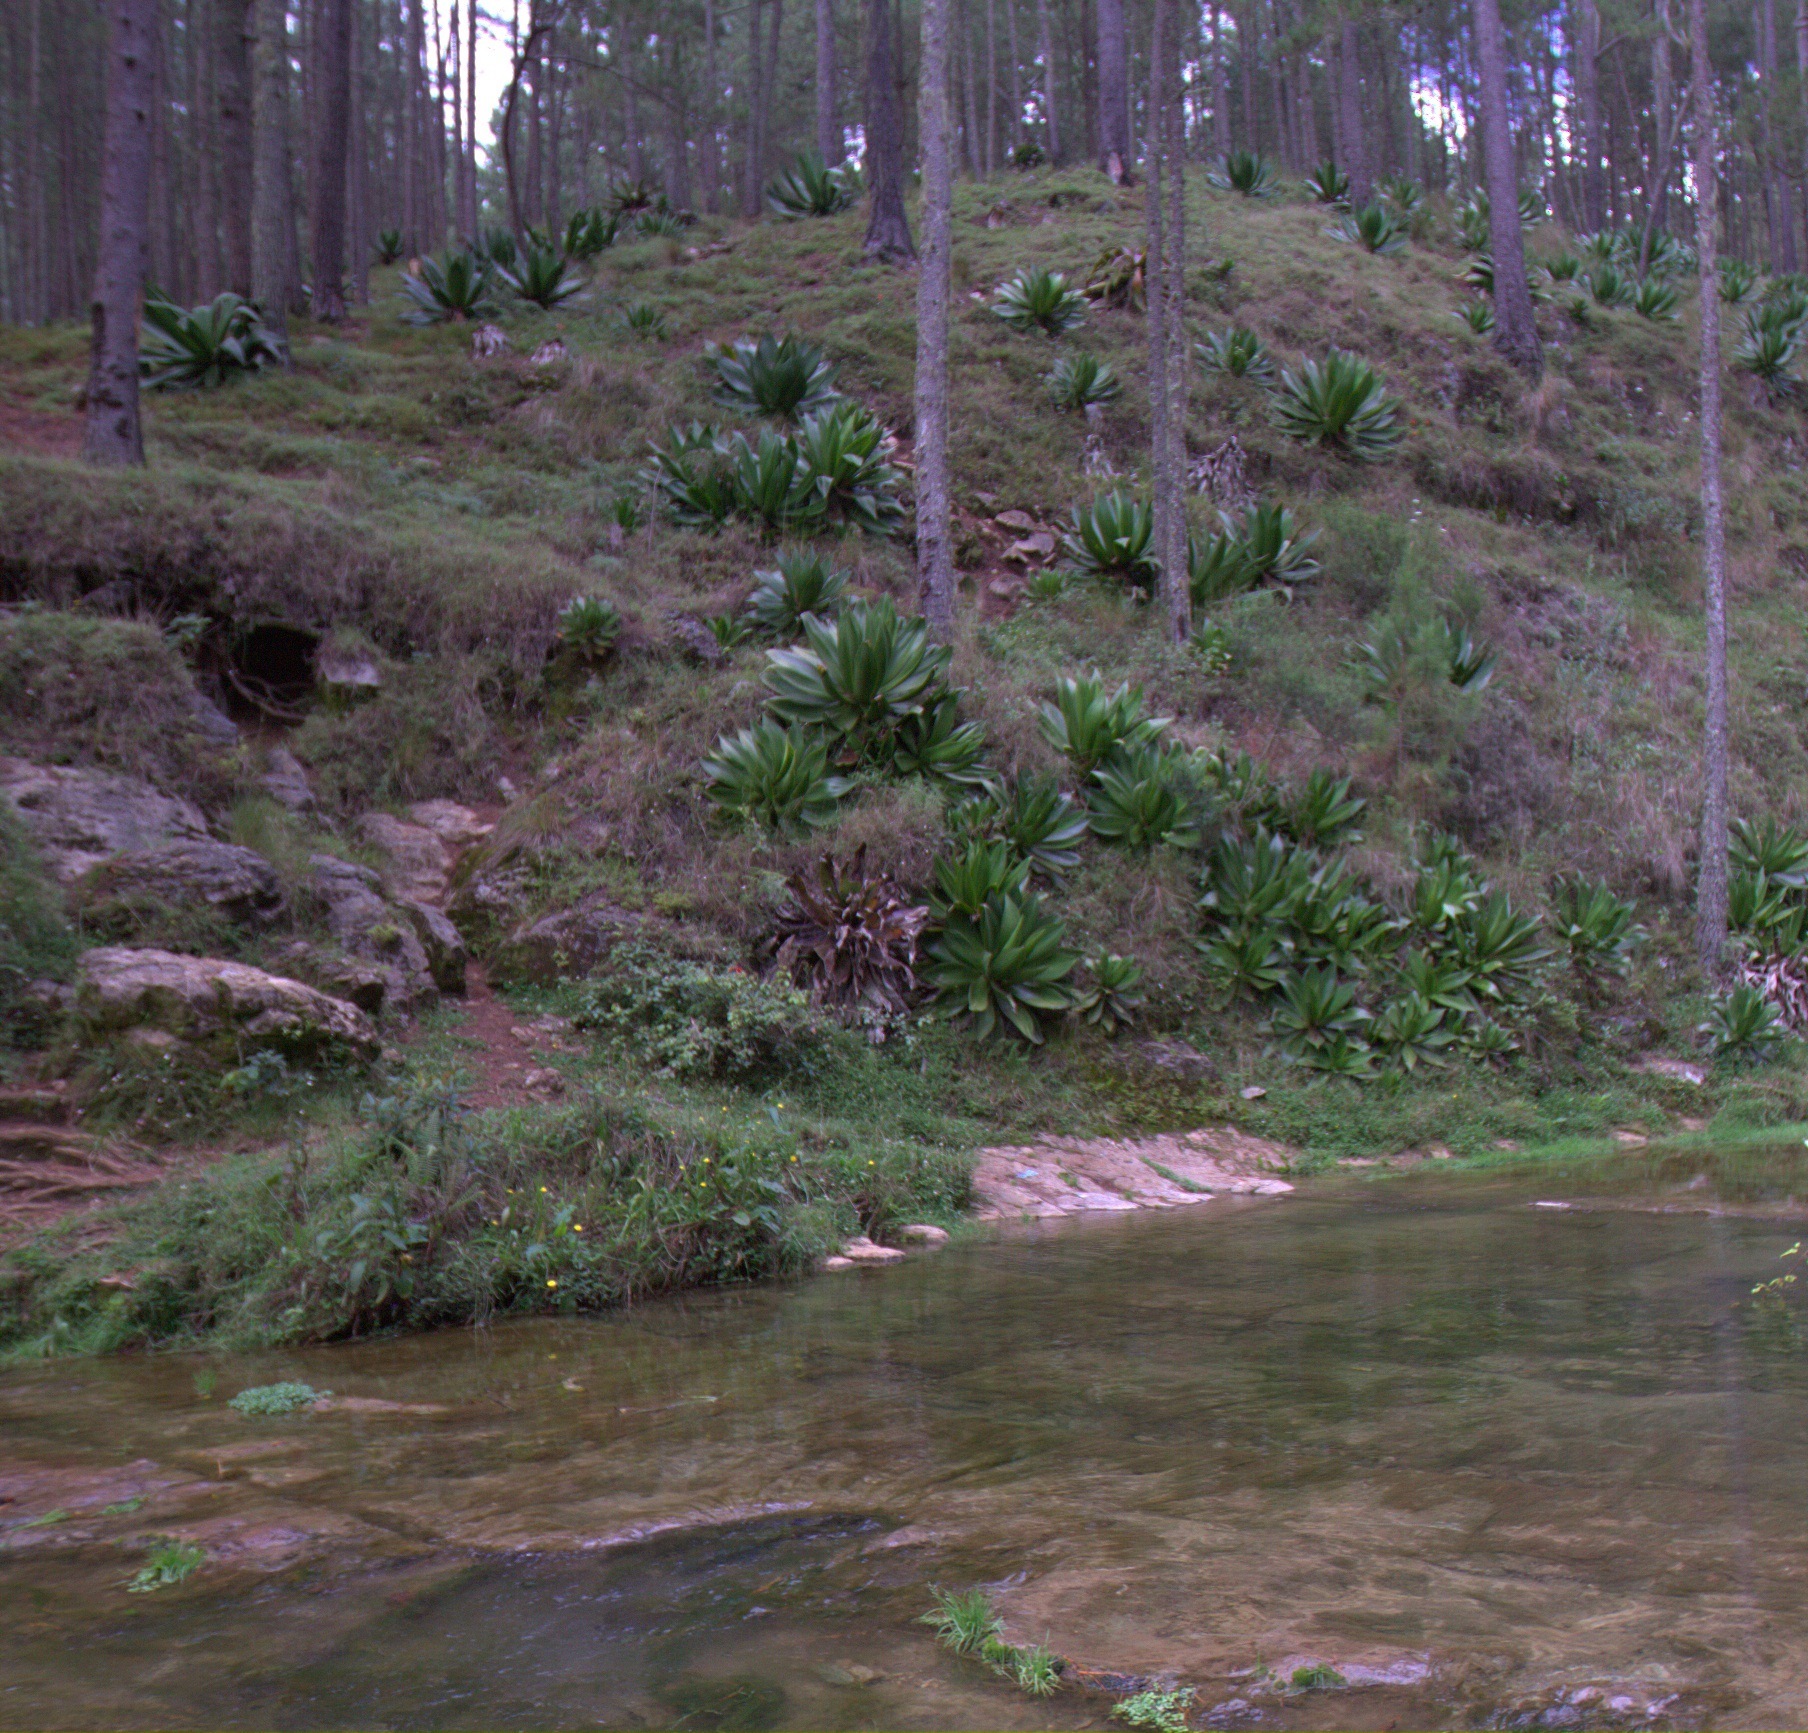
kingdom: Plantae
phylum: Tracheophyta
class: Liliopsida
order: Asparagales
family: Asparagaceae
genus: Agave
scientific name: Agave intermixta
